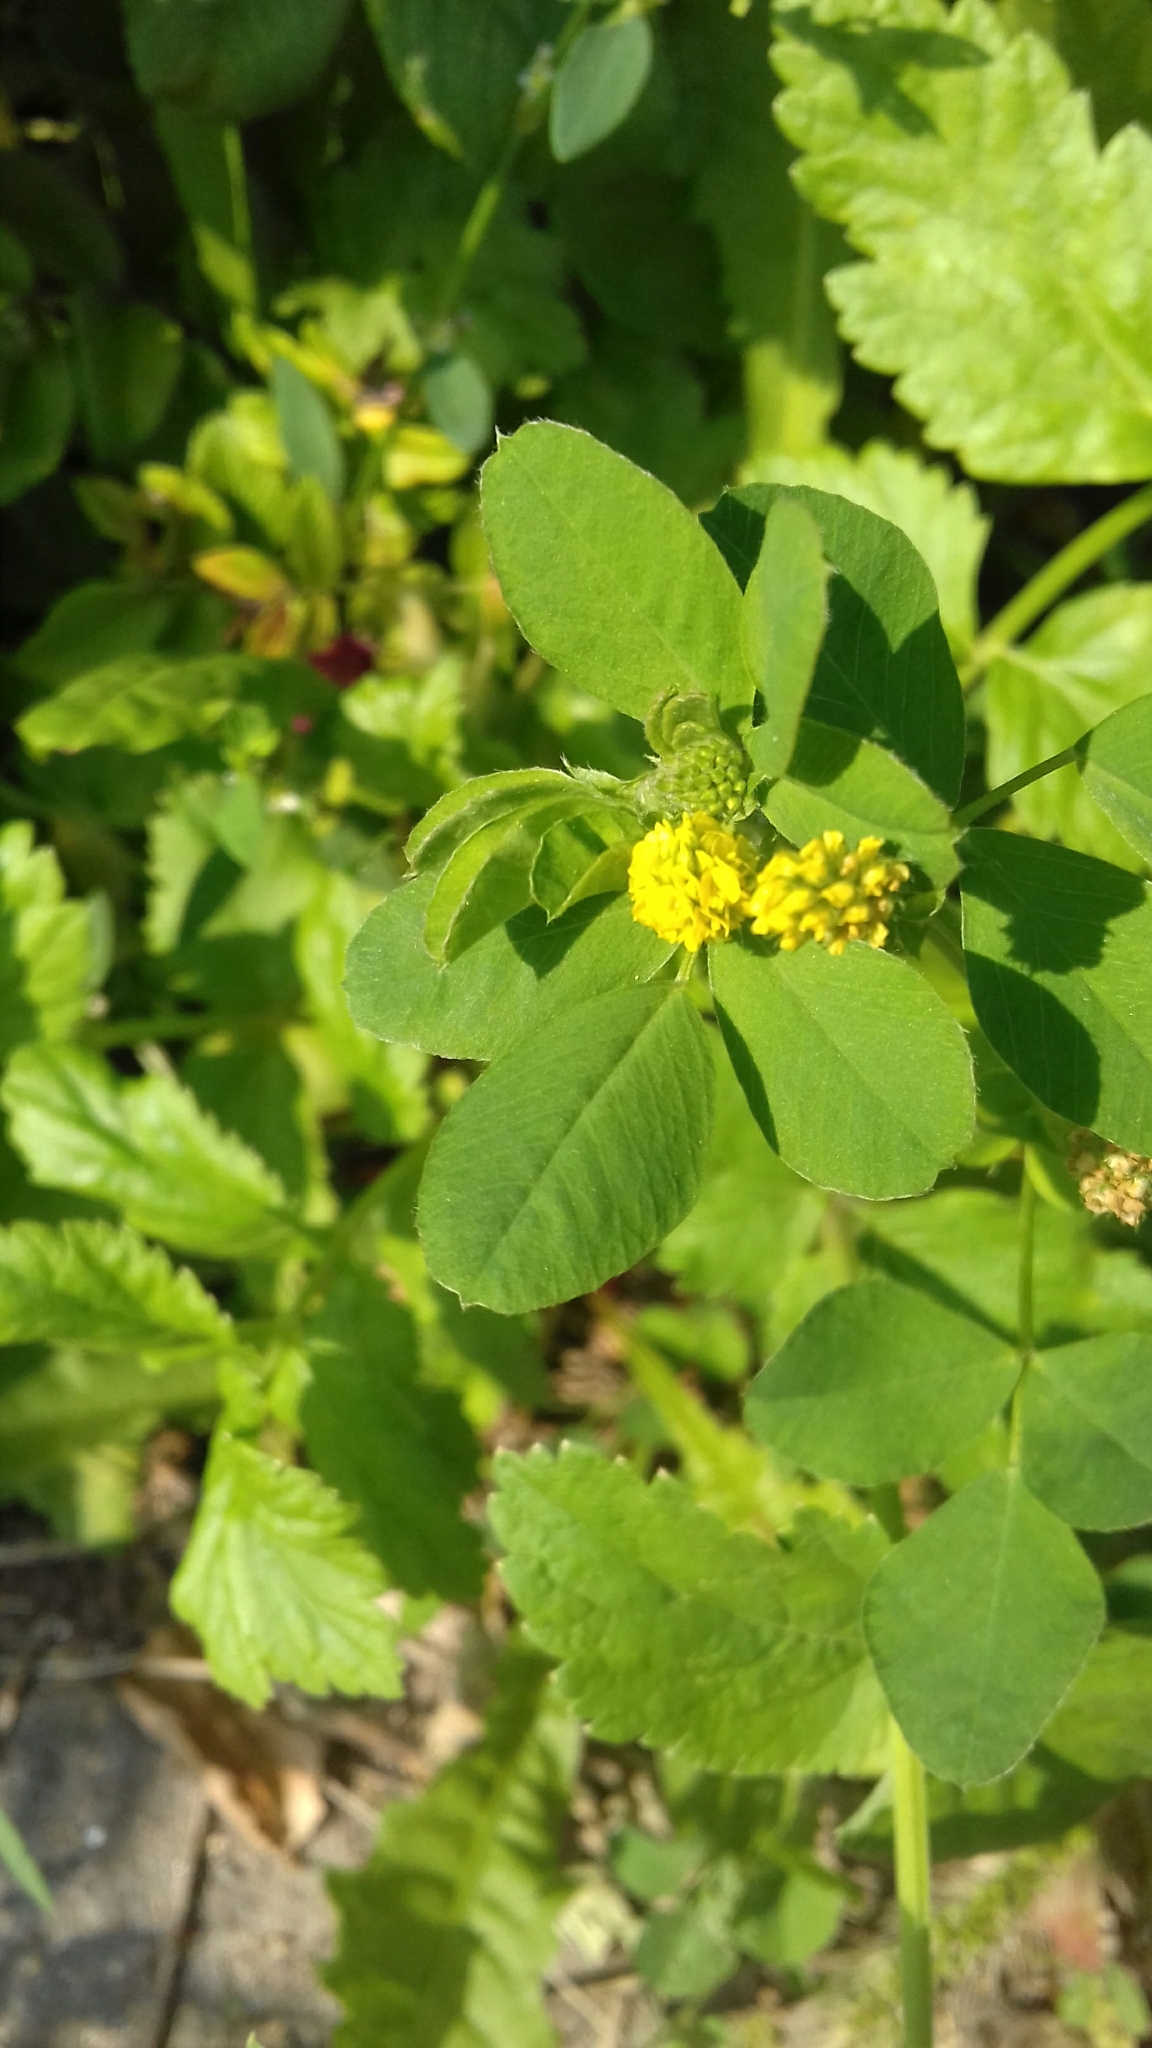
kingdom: Plantae
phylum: Tracheophyta
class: Magnoliopsida
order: Fabales
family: Fabaceae
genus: Medicago
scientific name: Medicago lupulina
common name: Black medick
